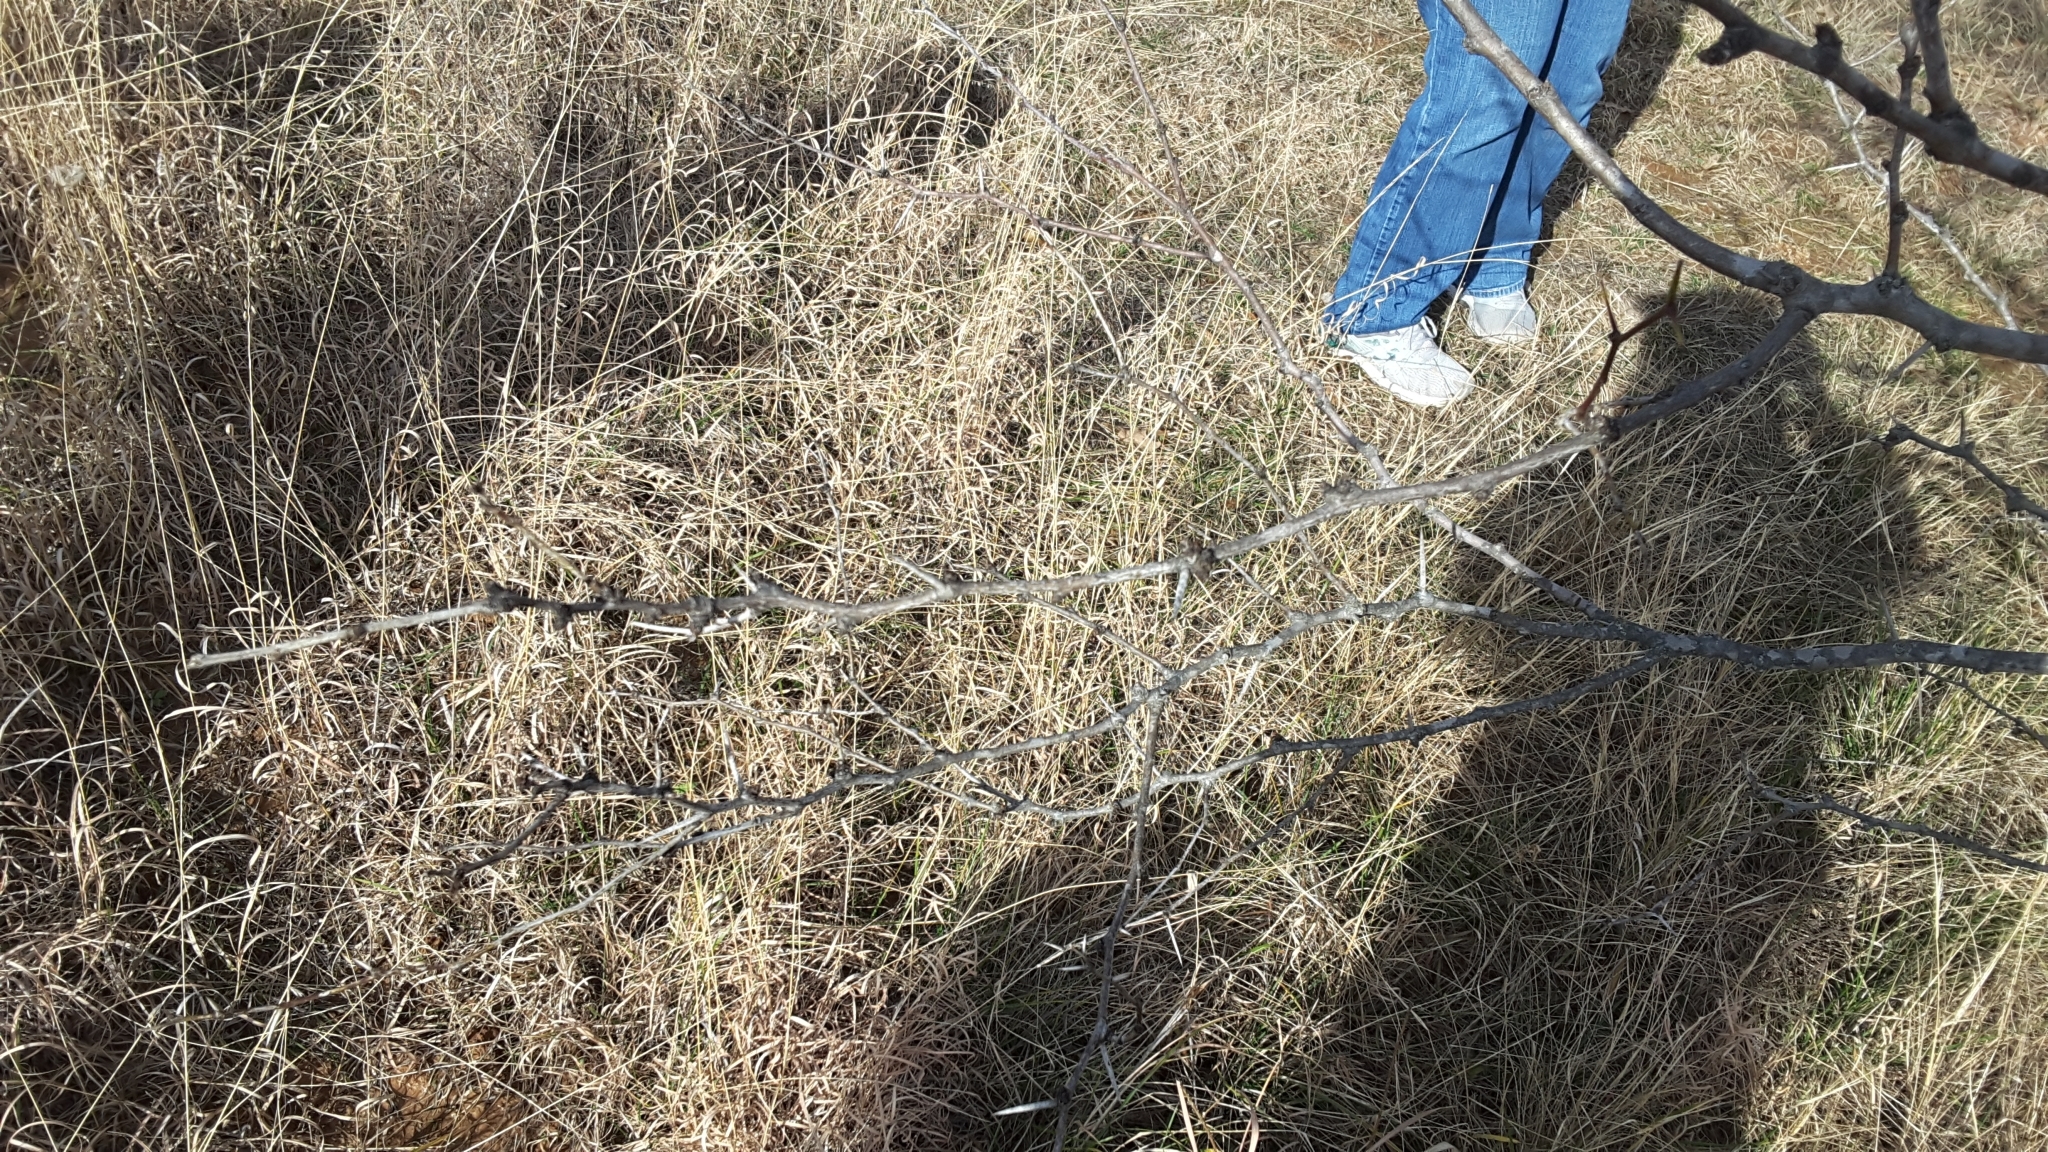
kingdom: Plantae
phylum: Tracheophyta
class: Magnoliopsida
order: Fabales
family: Fabaceae
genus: Prosopis
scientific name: Prosopis glandulosa
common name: Honey mesquite
